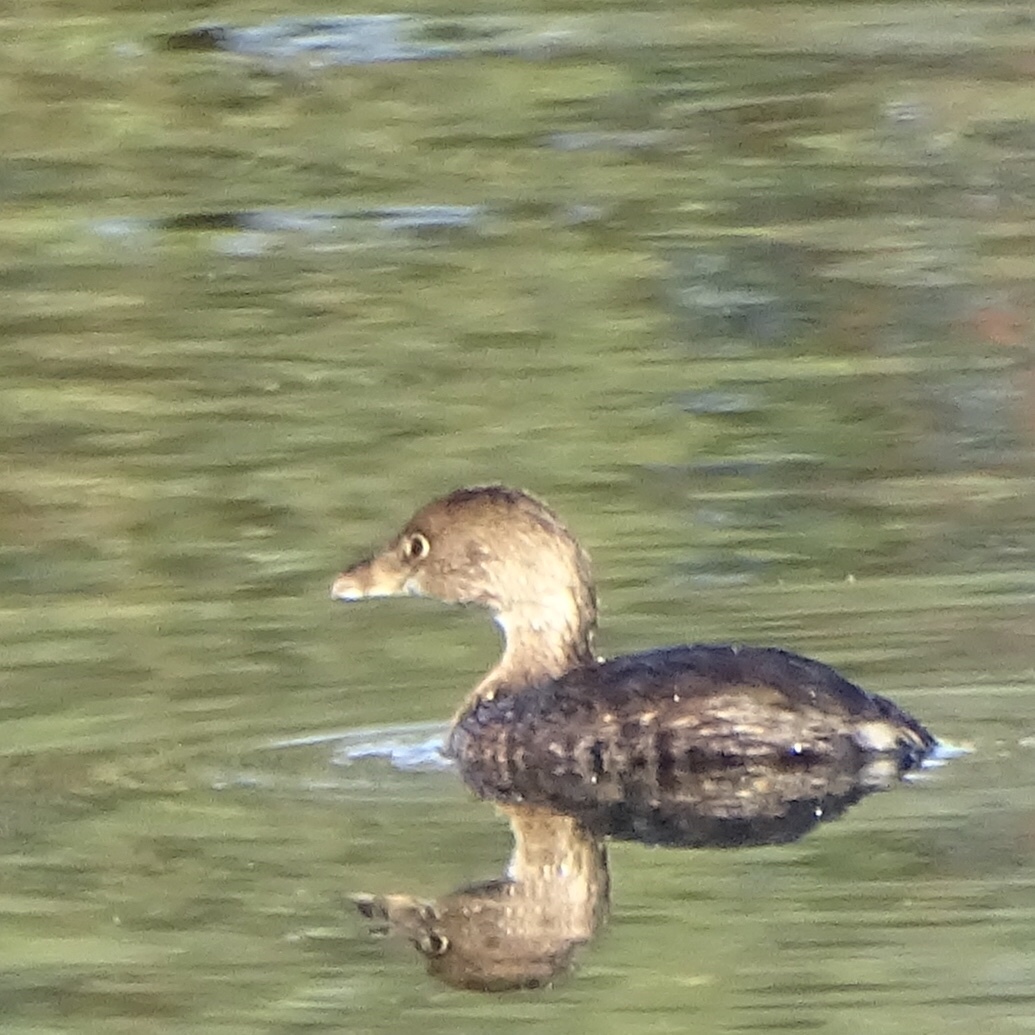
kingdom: Animalia
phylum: Chordata
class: Aves
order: Podicipediformes
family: Podicipedidae
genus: Podilymbus
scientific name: Podilymbus podiceps
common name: Pied-billed grebe
